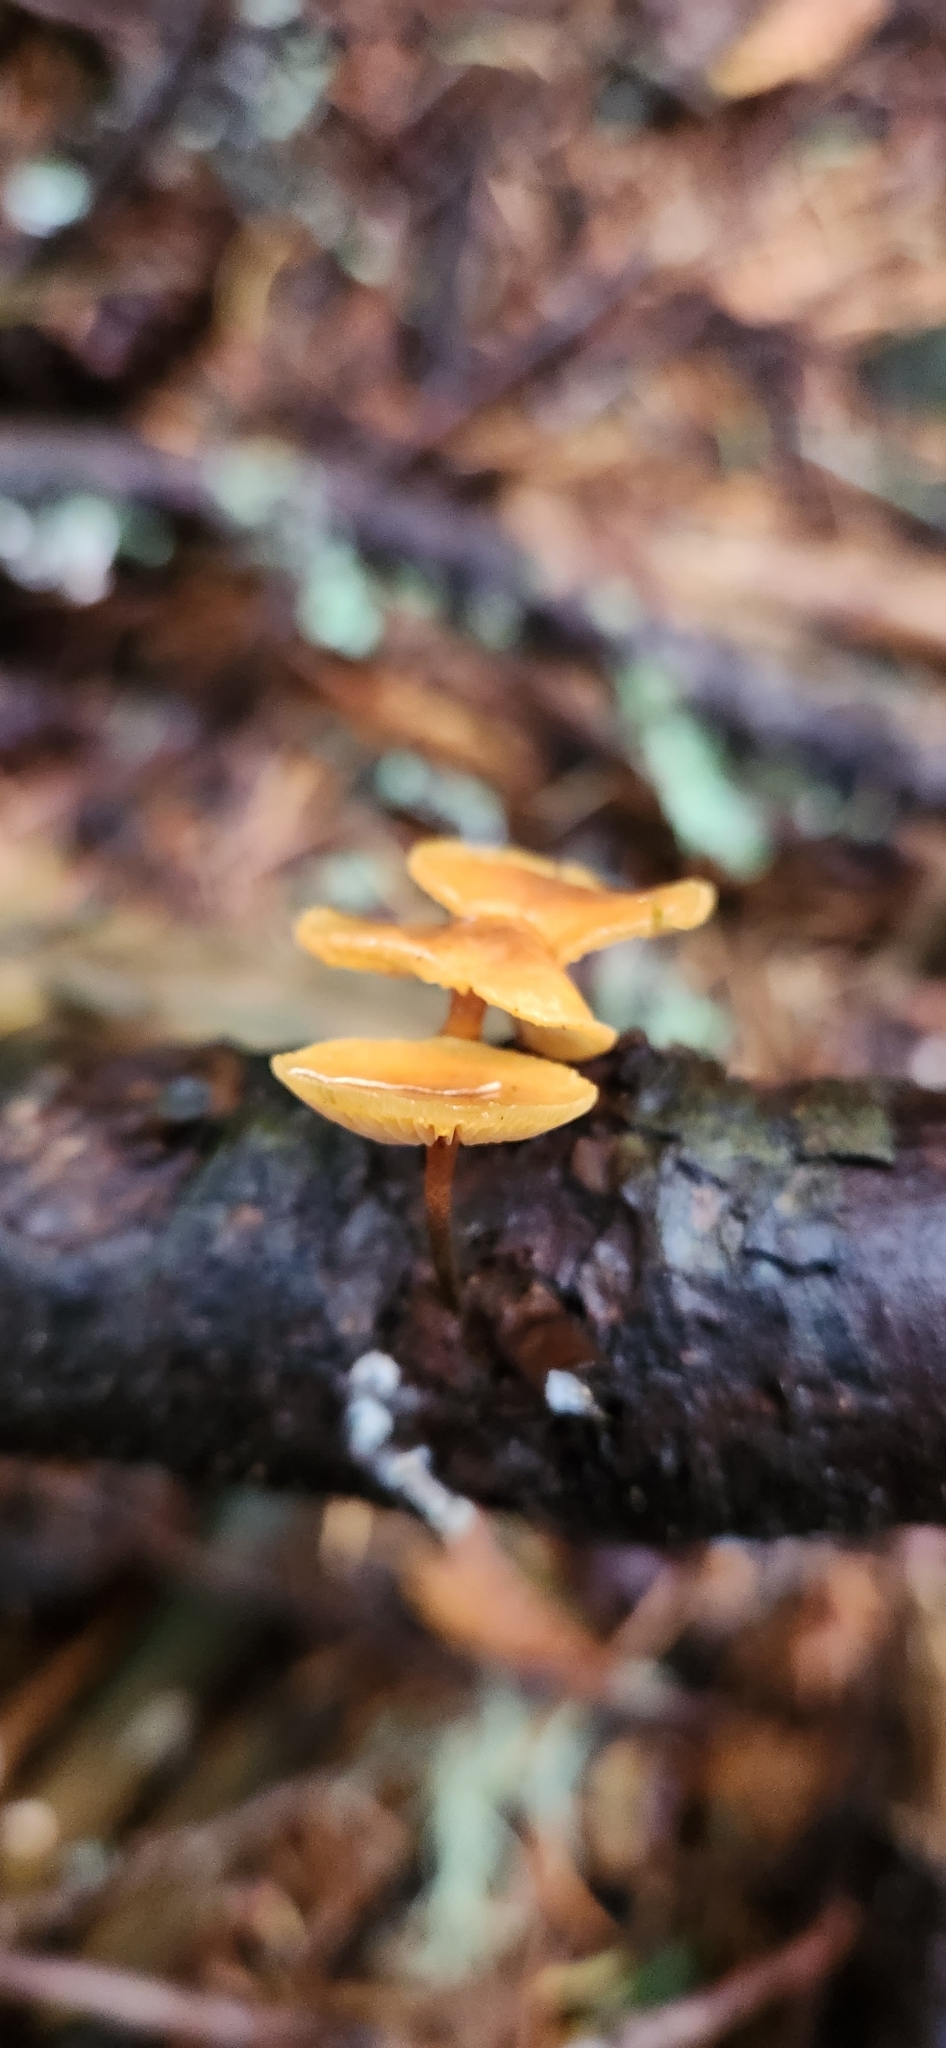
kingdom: Fungi
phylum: Basidiomycota
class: Agaricomycetes
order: Agaricales
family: Mycenaceae
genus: Xeromphalina
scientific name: Xeromphalina fulvipes
